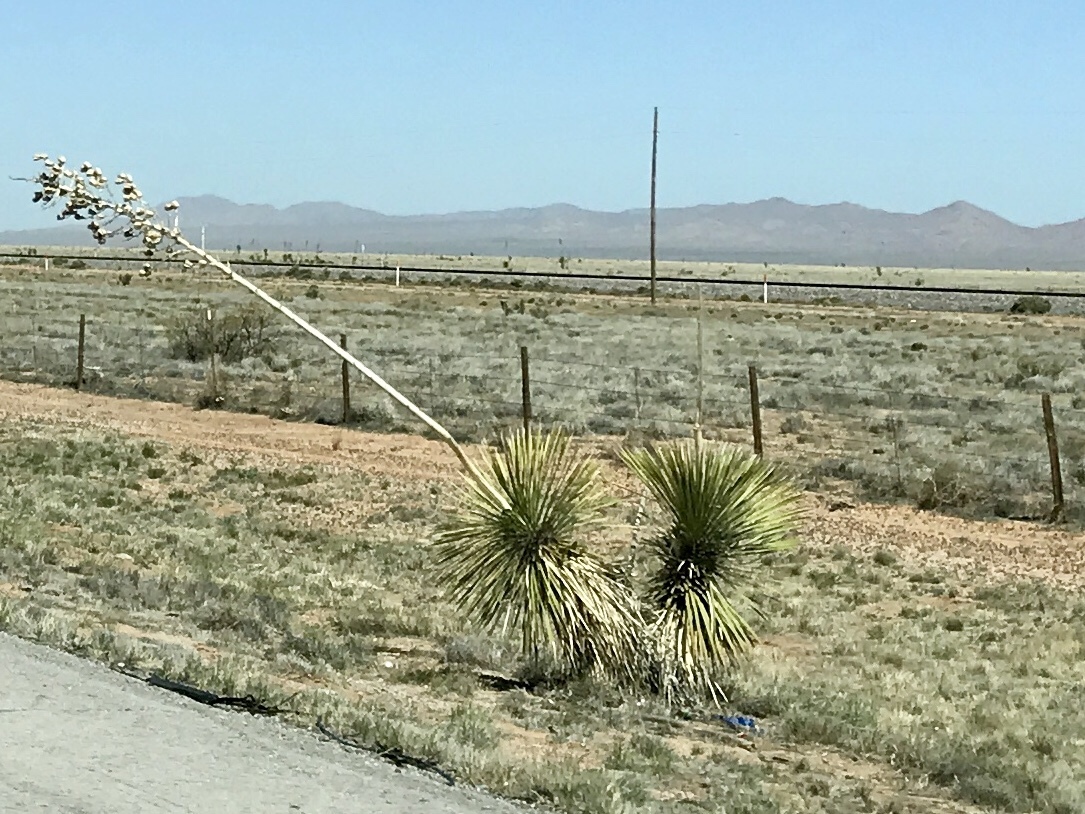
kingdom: Plantae
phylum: Tracheophyta
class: Liliopsida
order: Asparagales
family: Asparagaceae
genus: Yucca
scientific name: Yucca elata
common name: Palmella
